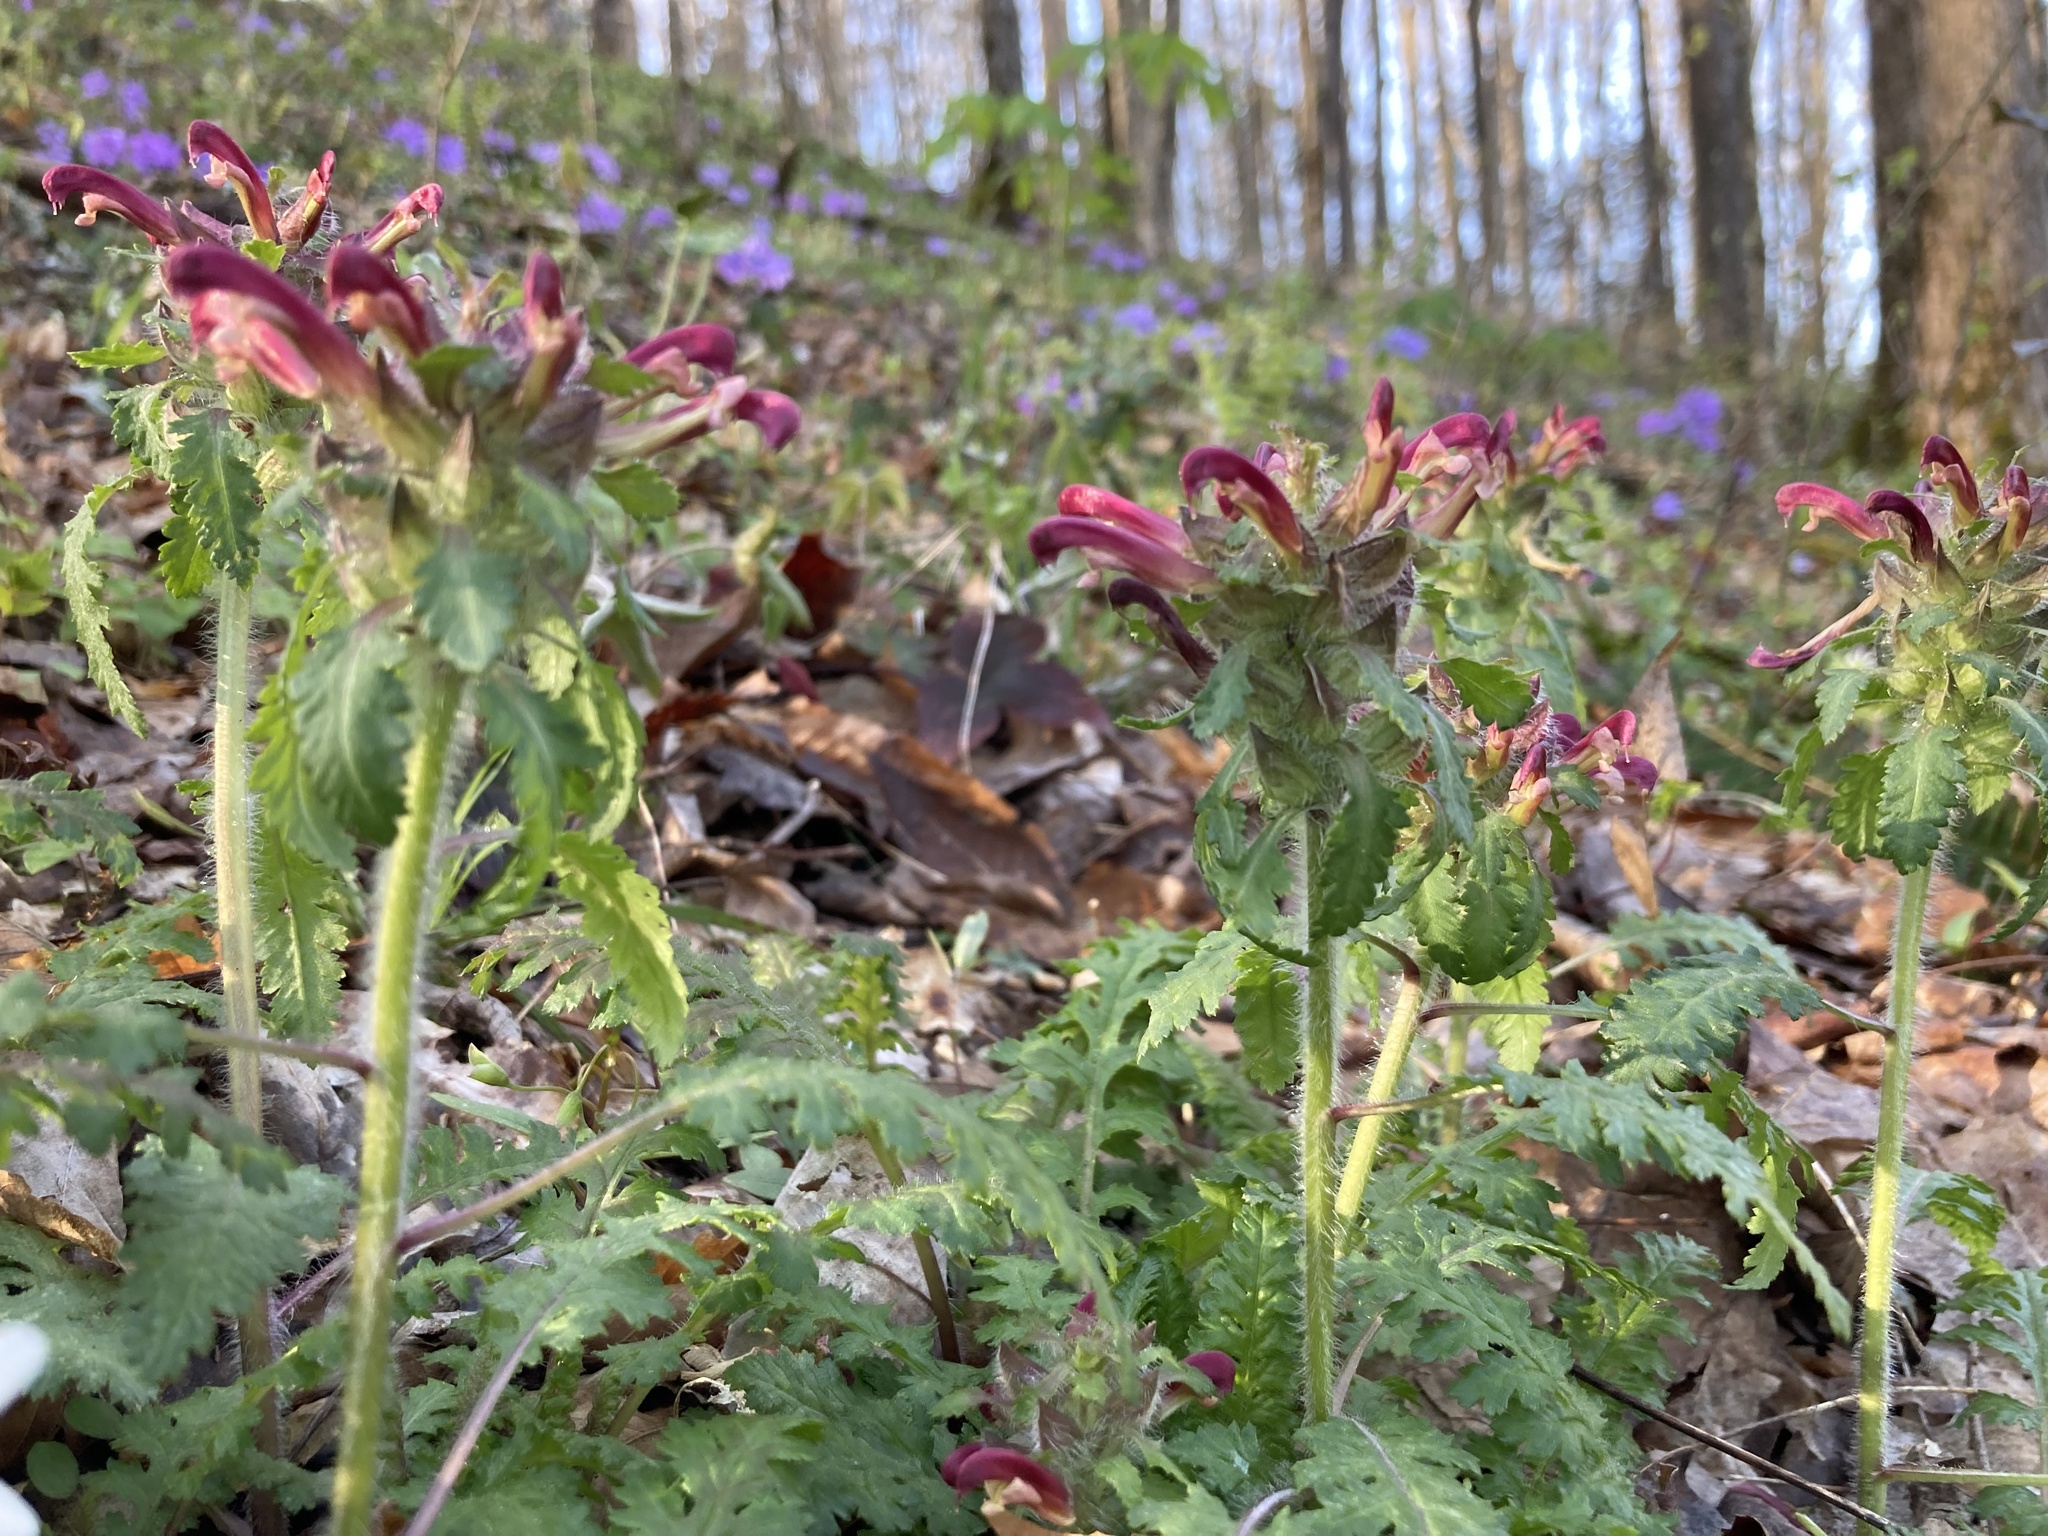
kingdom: Plantae
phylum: Tracheophyta
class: Magnoliopsida
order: Lamiales
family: Orobanchaceae
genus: Pedicularis
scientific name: Pedicularis canadensis
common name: Early lousewort
